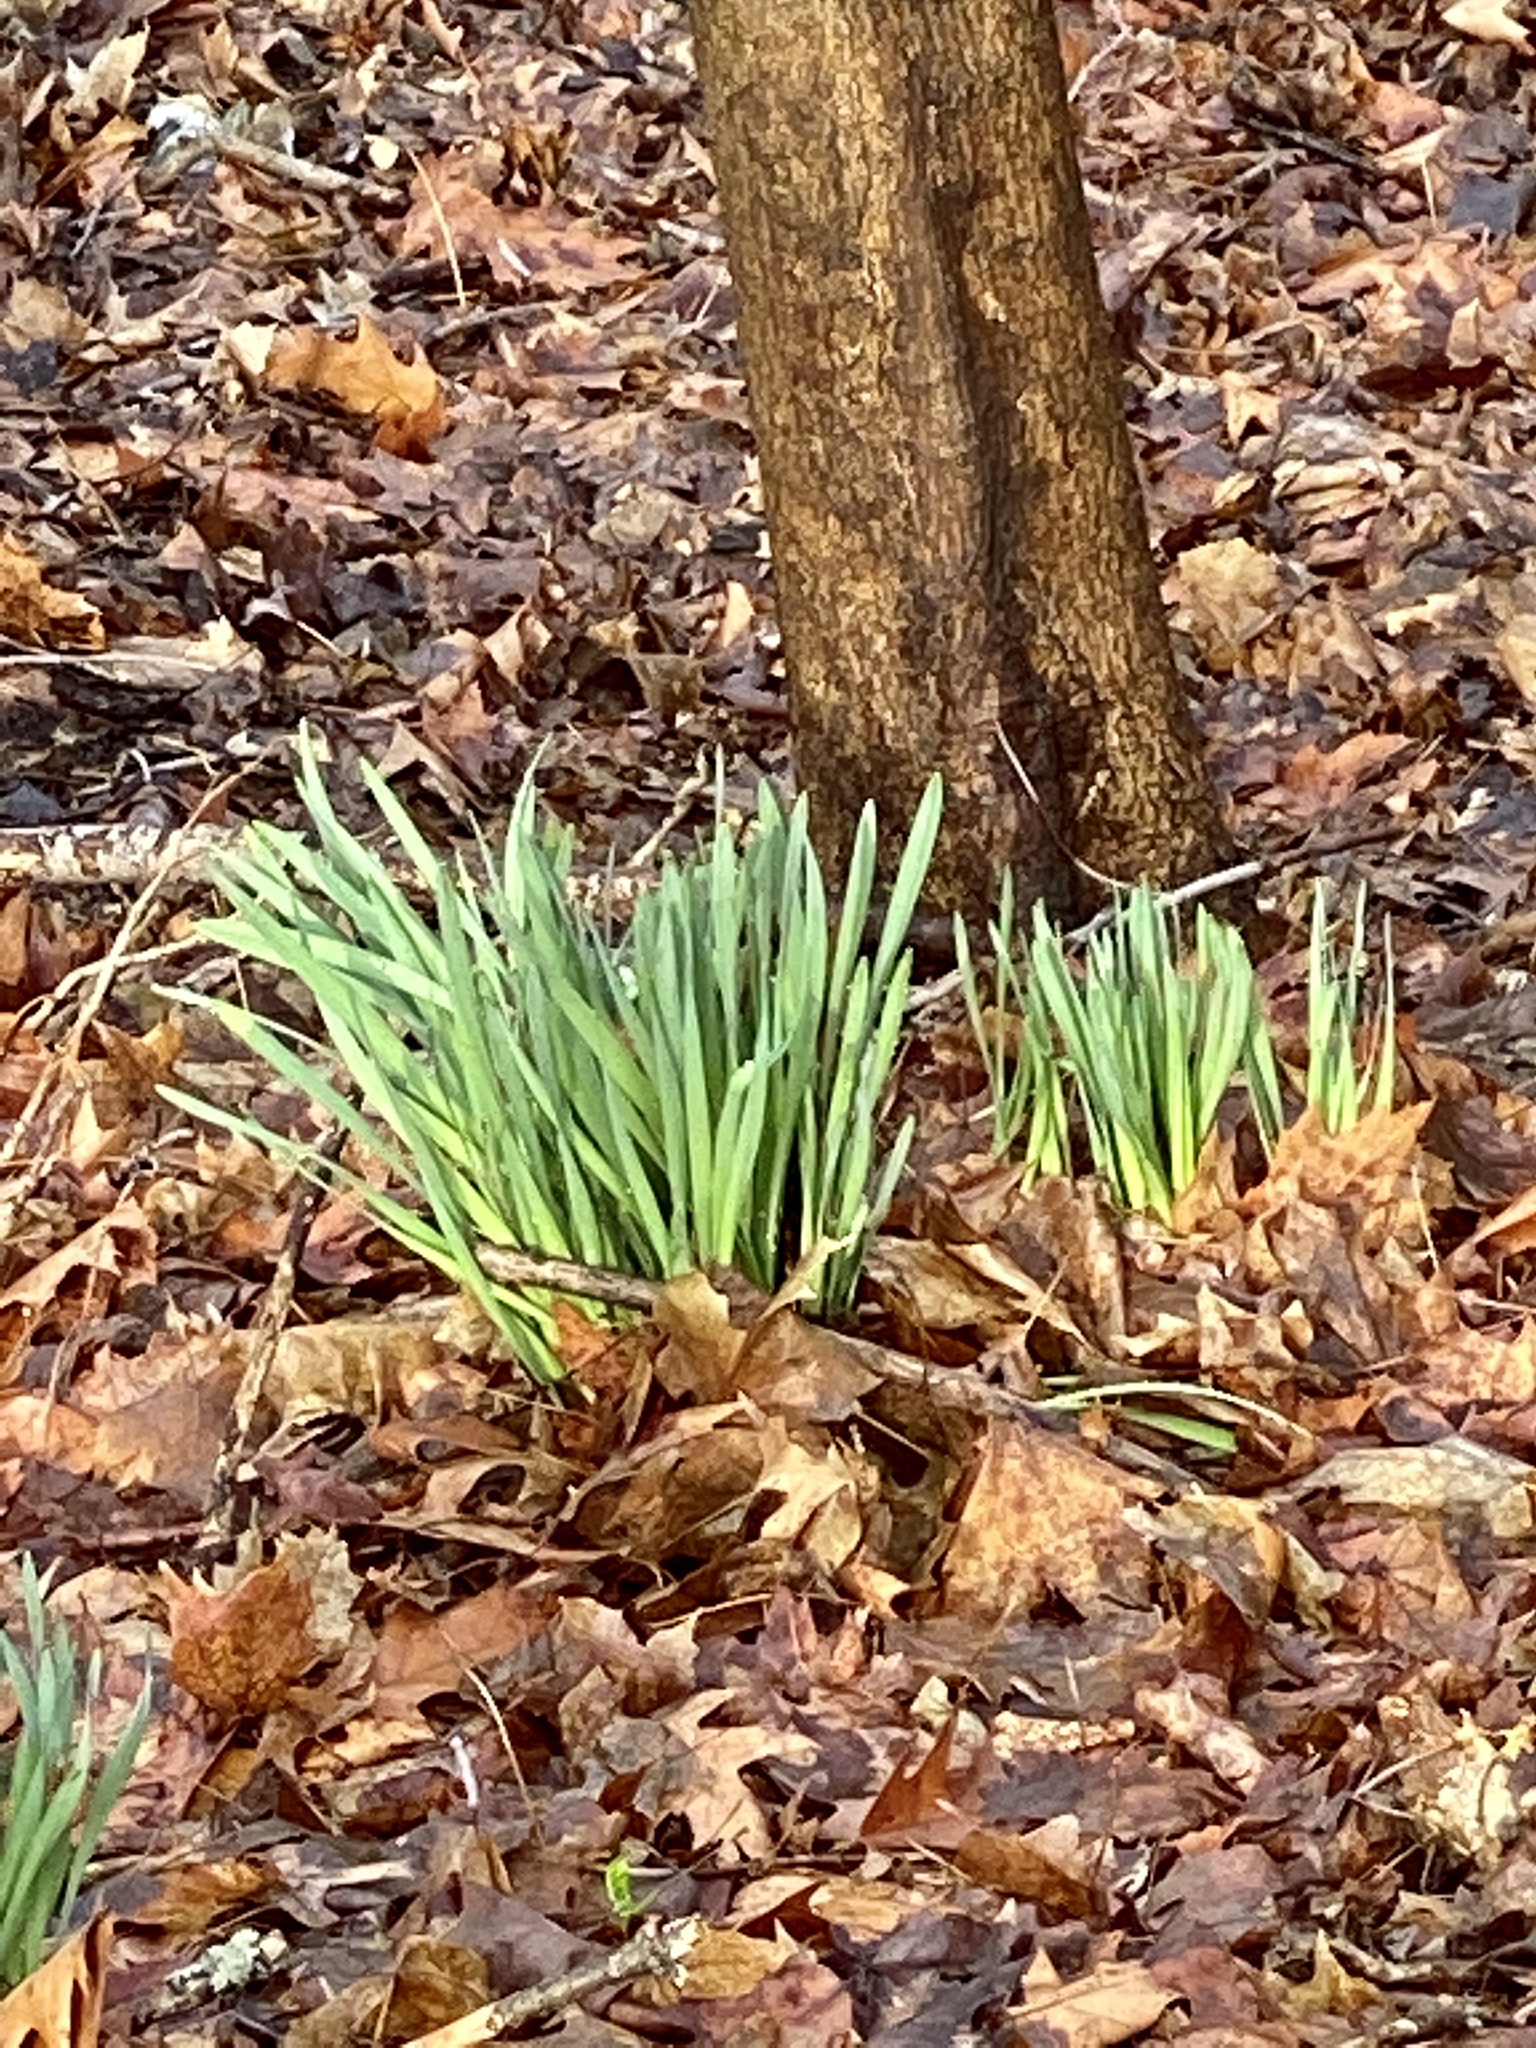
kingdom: Plantae
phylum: Tracheophyta
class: Liliopsida
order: Asparagales
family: Amaryllidaceae
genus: Narcissus
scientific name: Narcissus
